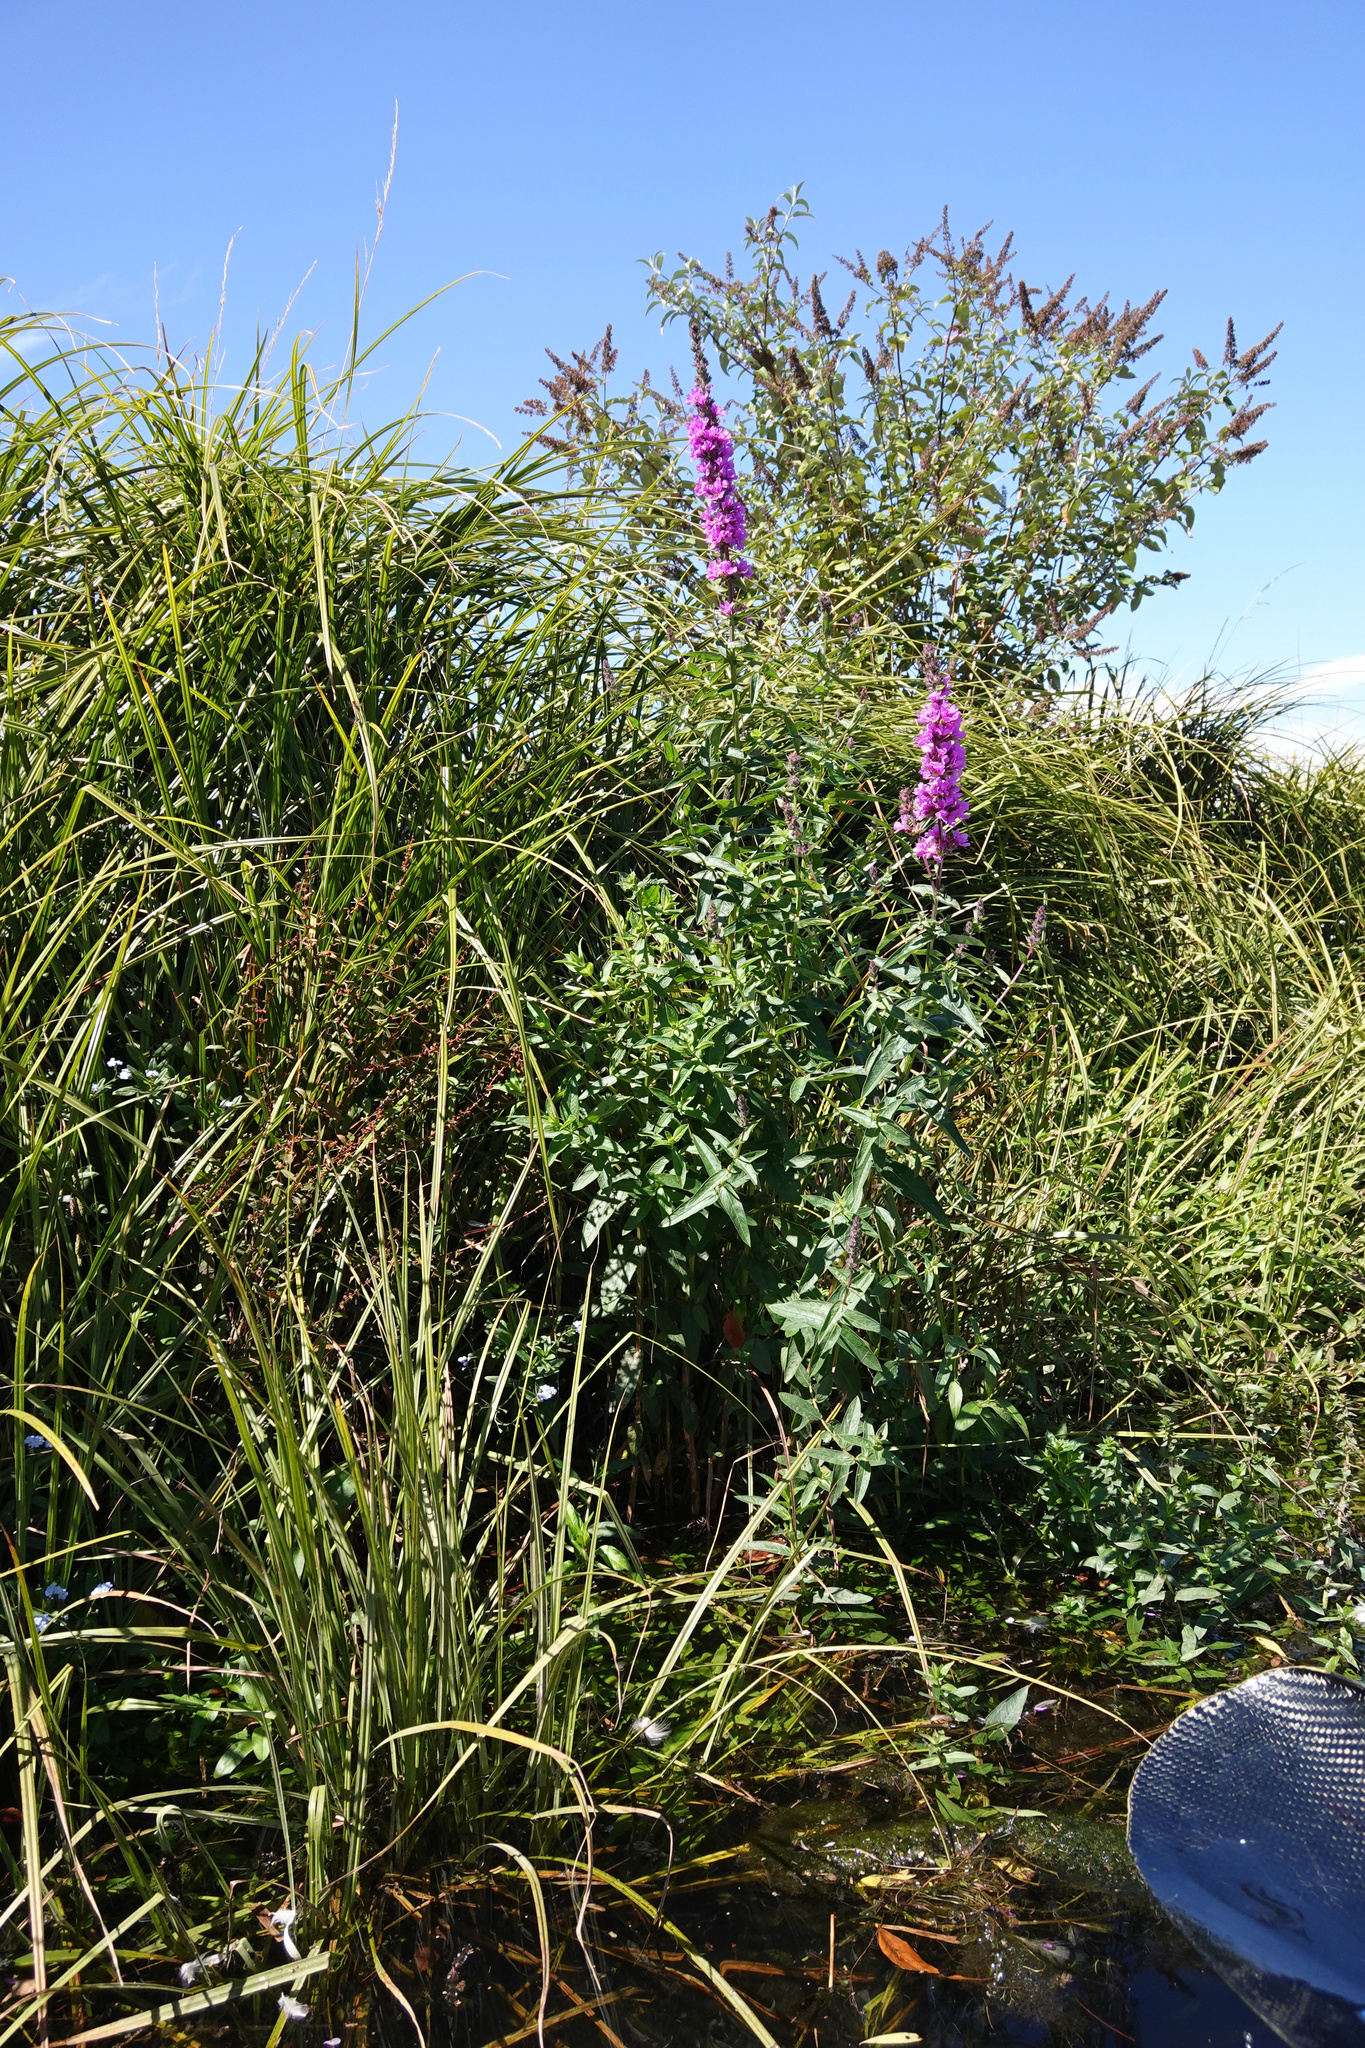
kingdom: Plantae
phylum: Tracheophyta
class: Magnoliopsida
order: Myrtales
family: Lythraceae
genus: Lythrum
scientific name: Lythrum salicaria
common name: Purple loosestrife
